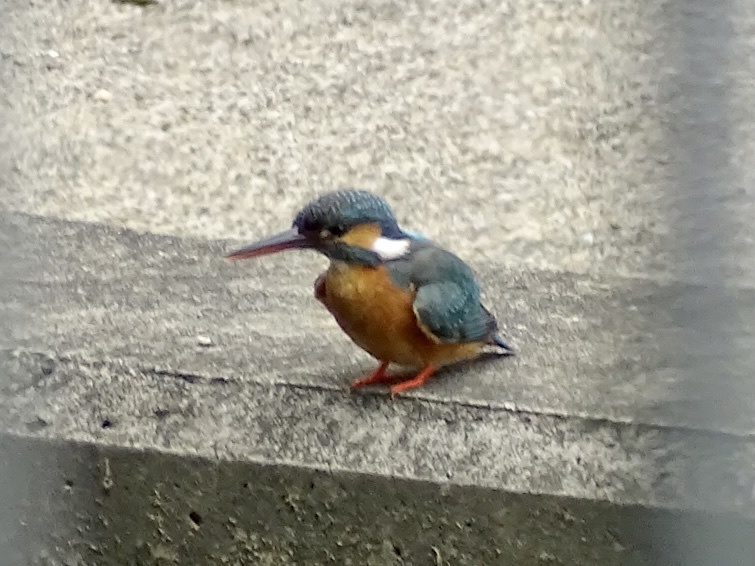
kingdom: Animalia
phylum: Chordata
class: Aves
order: Coraciiformes
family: Alcedinidae
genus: Alcedo
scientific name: Alcedo atthis
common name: Common kingfisher
